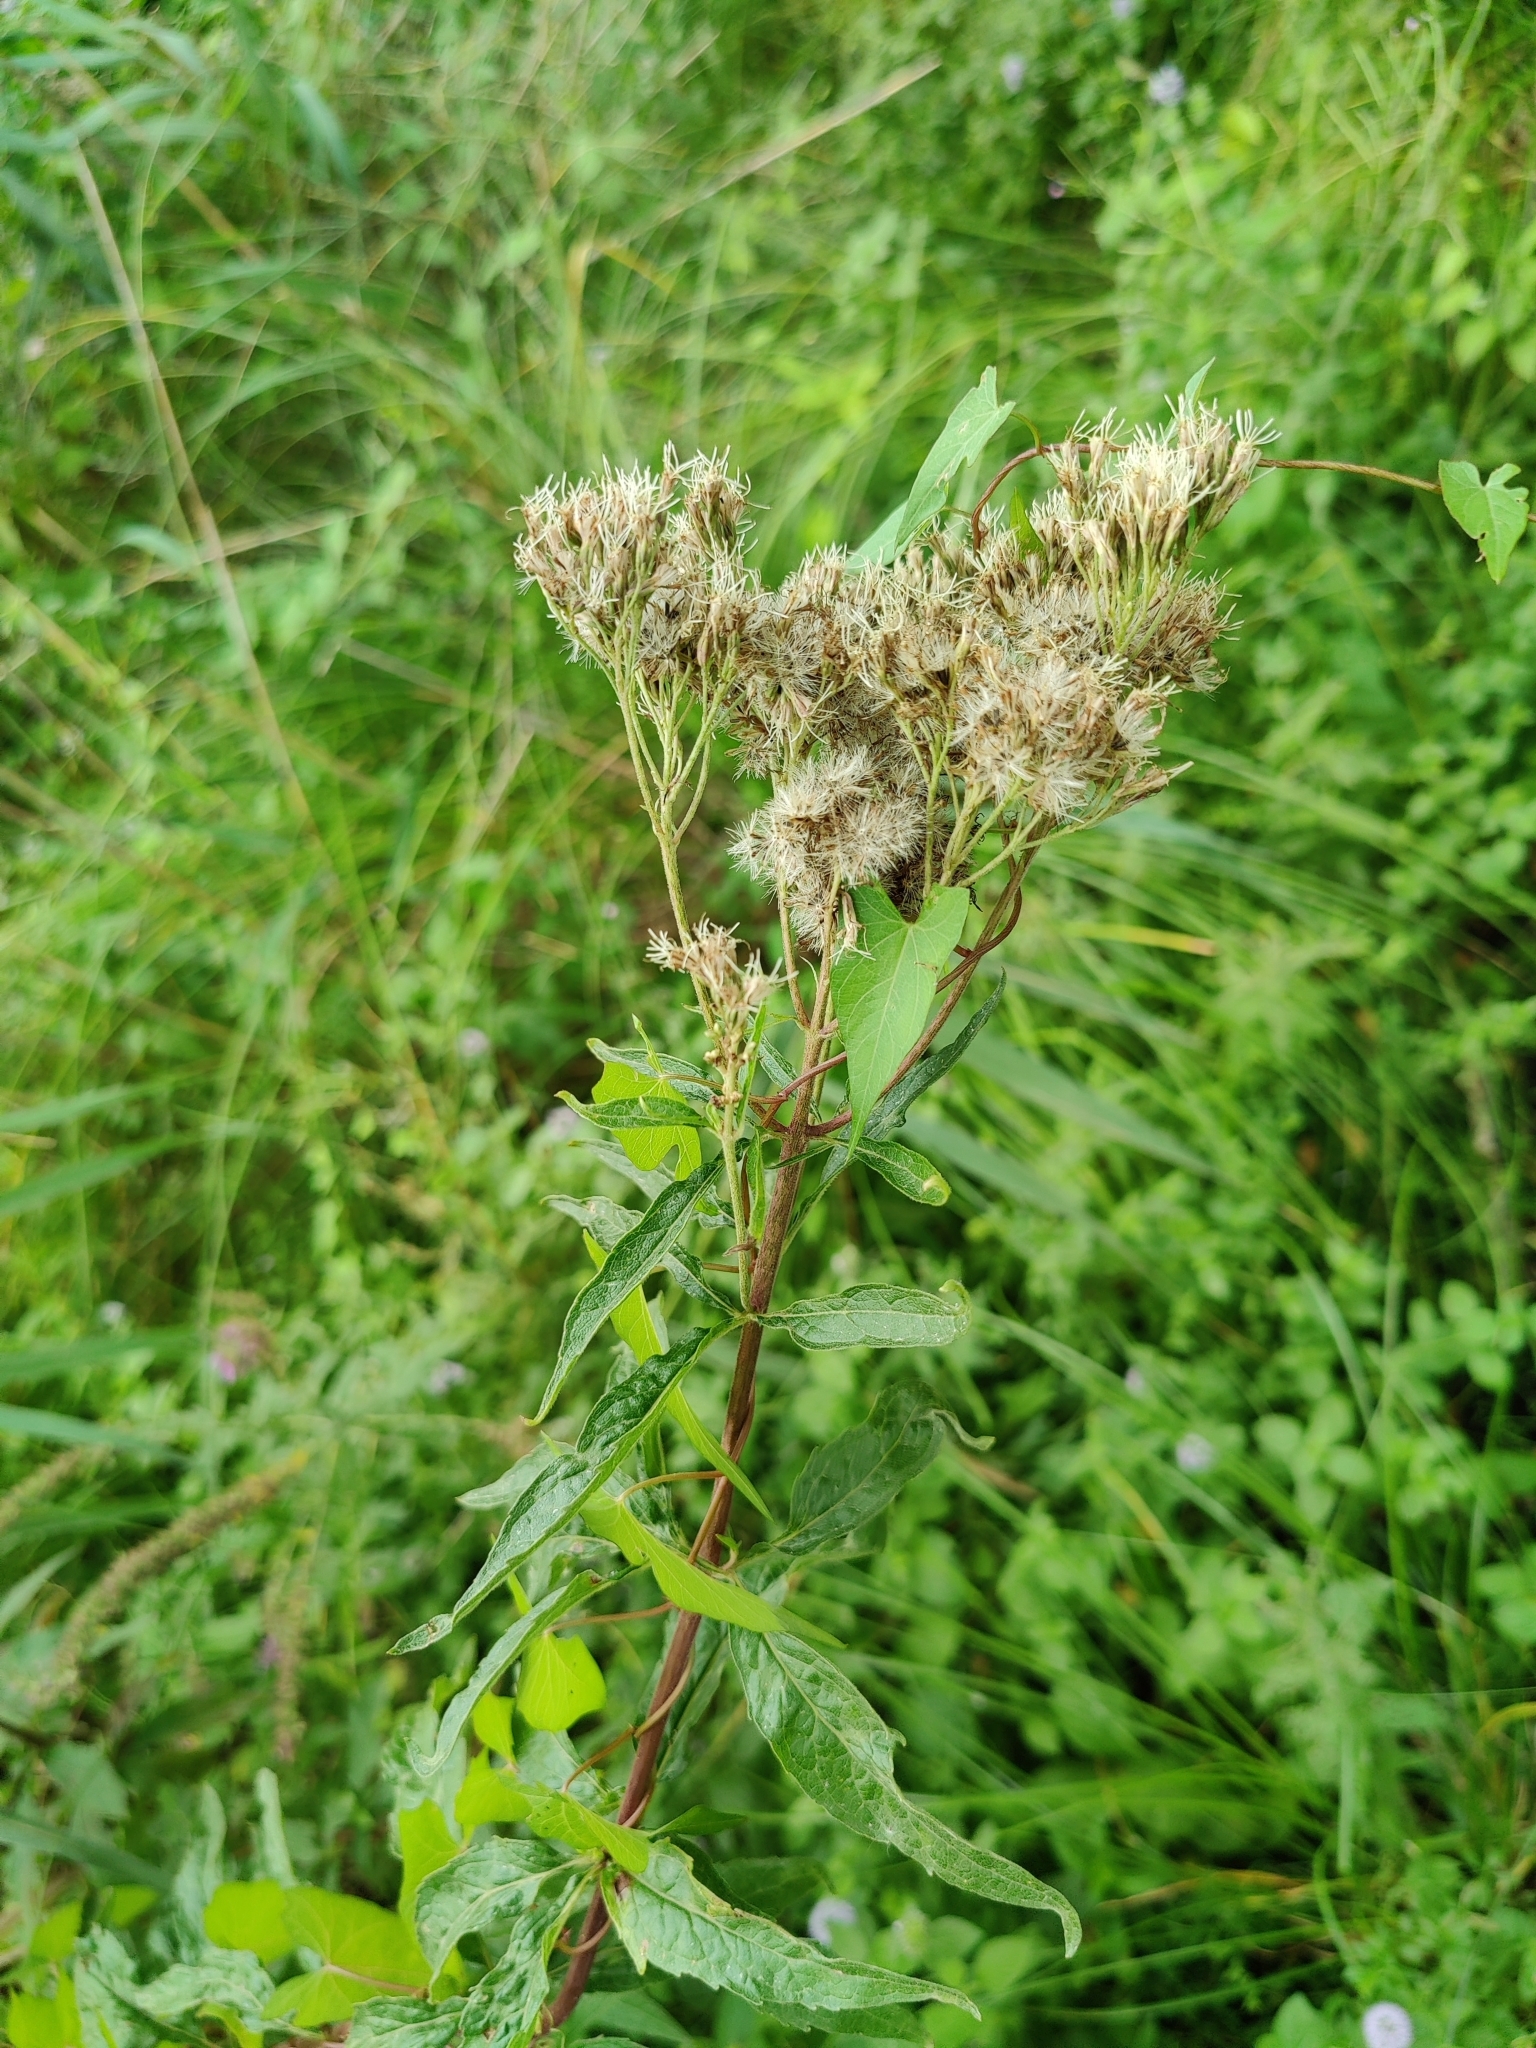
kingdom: Plantae
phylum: Tracheophyta
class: Magnoliopsida
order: Asterales
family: Asteraceae
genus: Eupatorium
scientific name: Eupatorium cannabinum
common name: Hemp-agrimony
